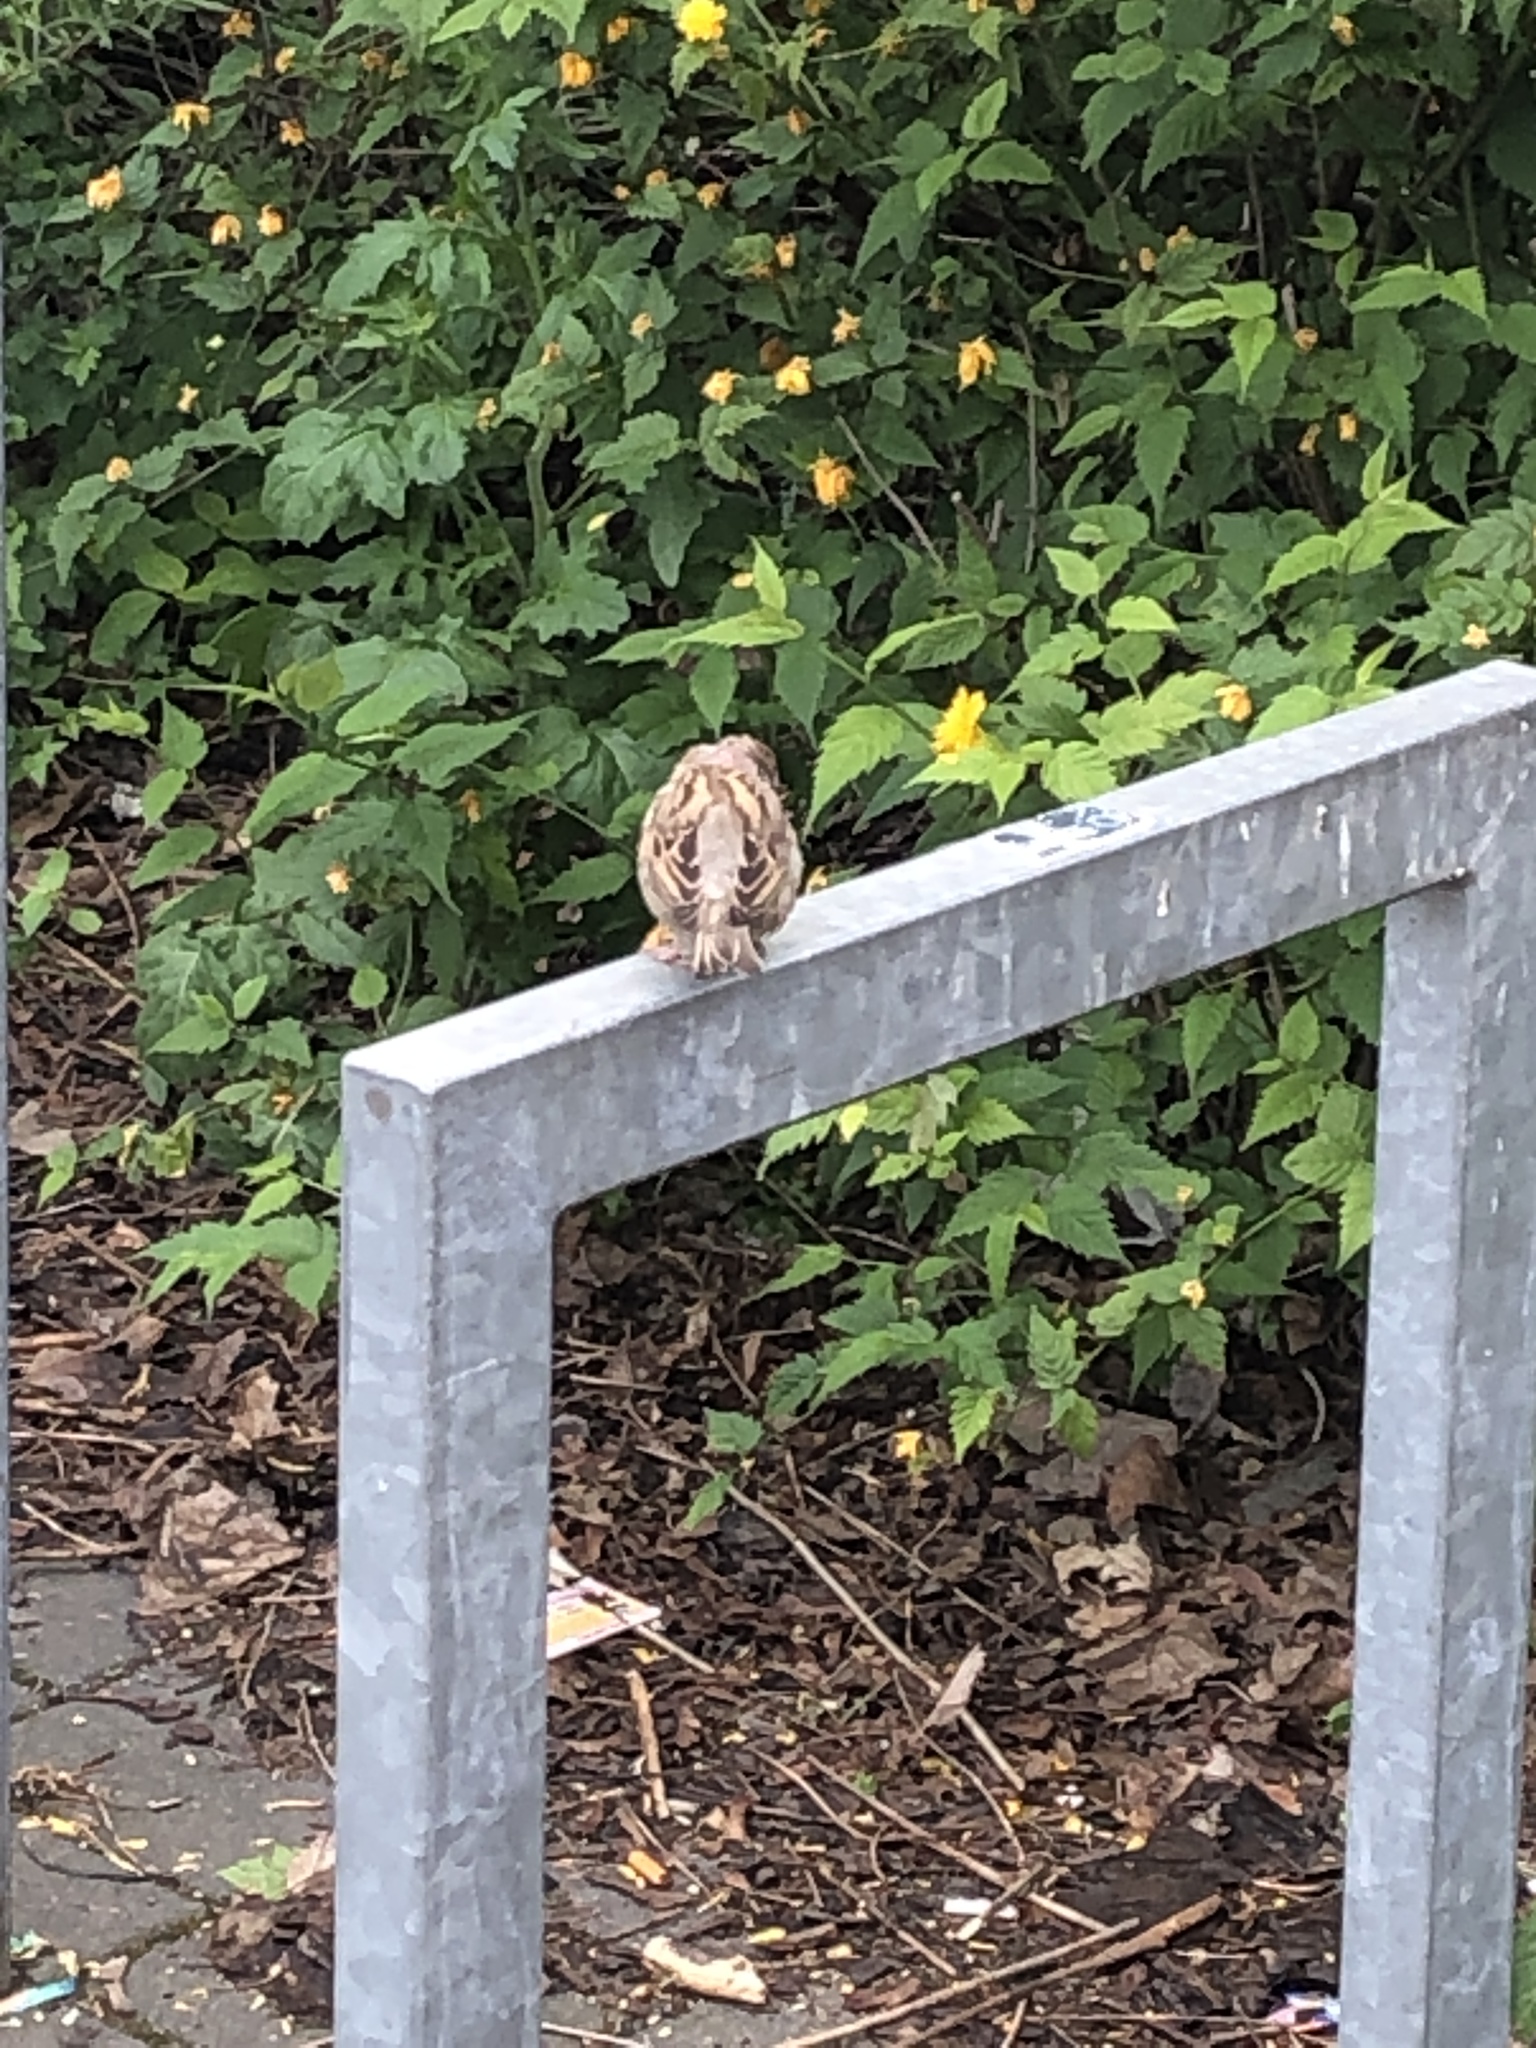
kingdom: Animalia
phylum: Chordata
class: Aves
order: Passeriformes
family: Passeridae
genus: Passer
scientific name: Passer domesticus
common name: House sparrow
